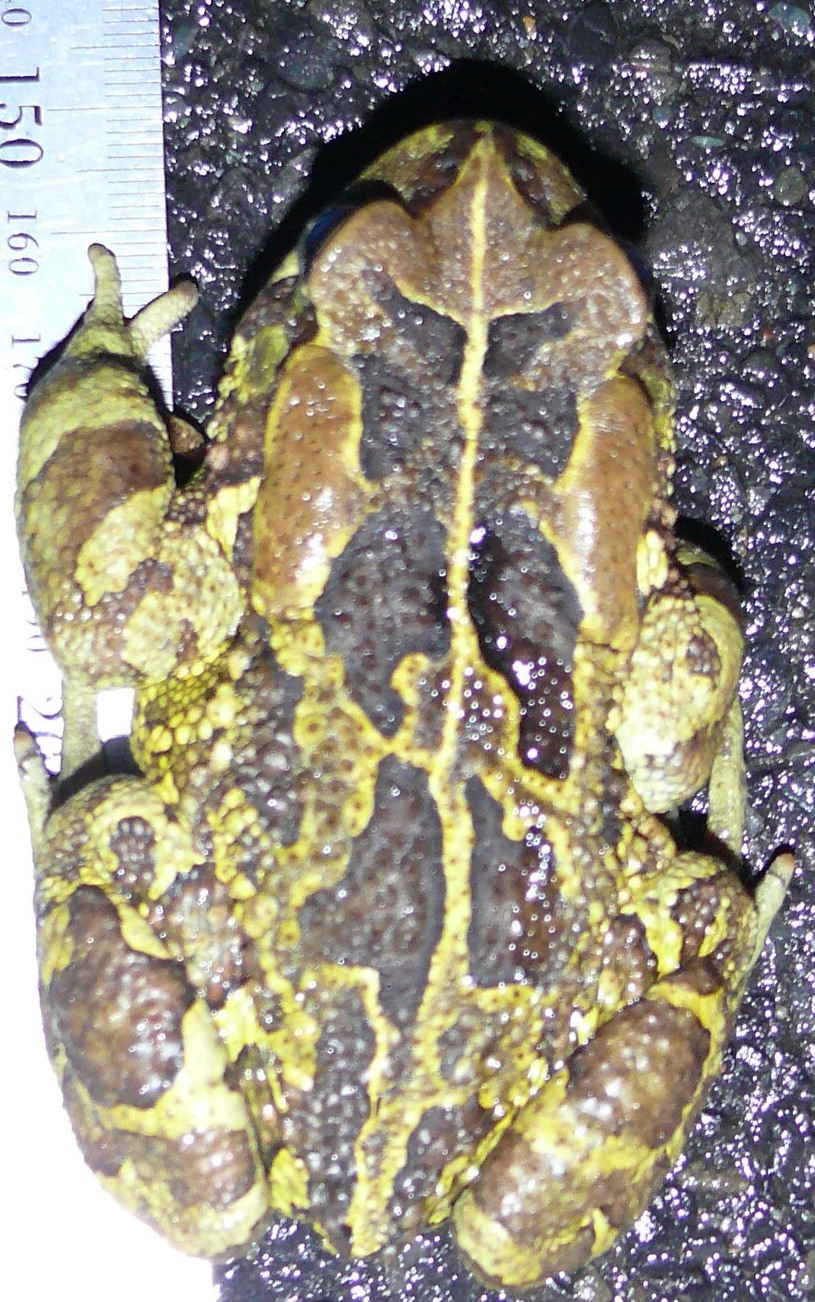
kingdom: Animalia
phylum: Chordata
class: Amphibia
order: Anura
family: Bufonidae
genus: Sclerophrys
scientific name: Sclerophrys pantherina
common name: Panther toad
